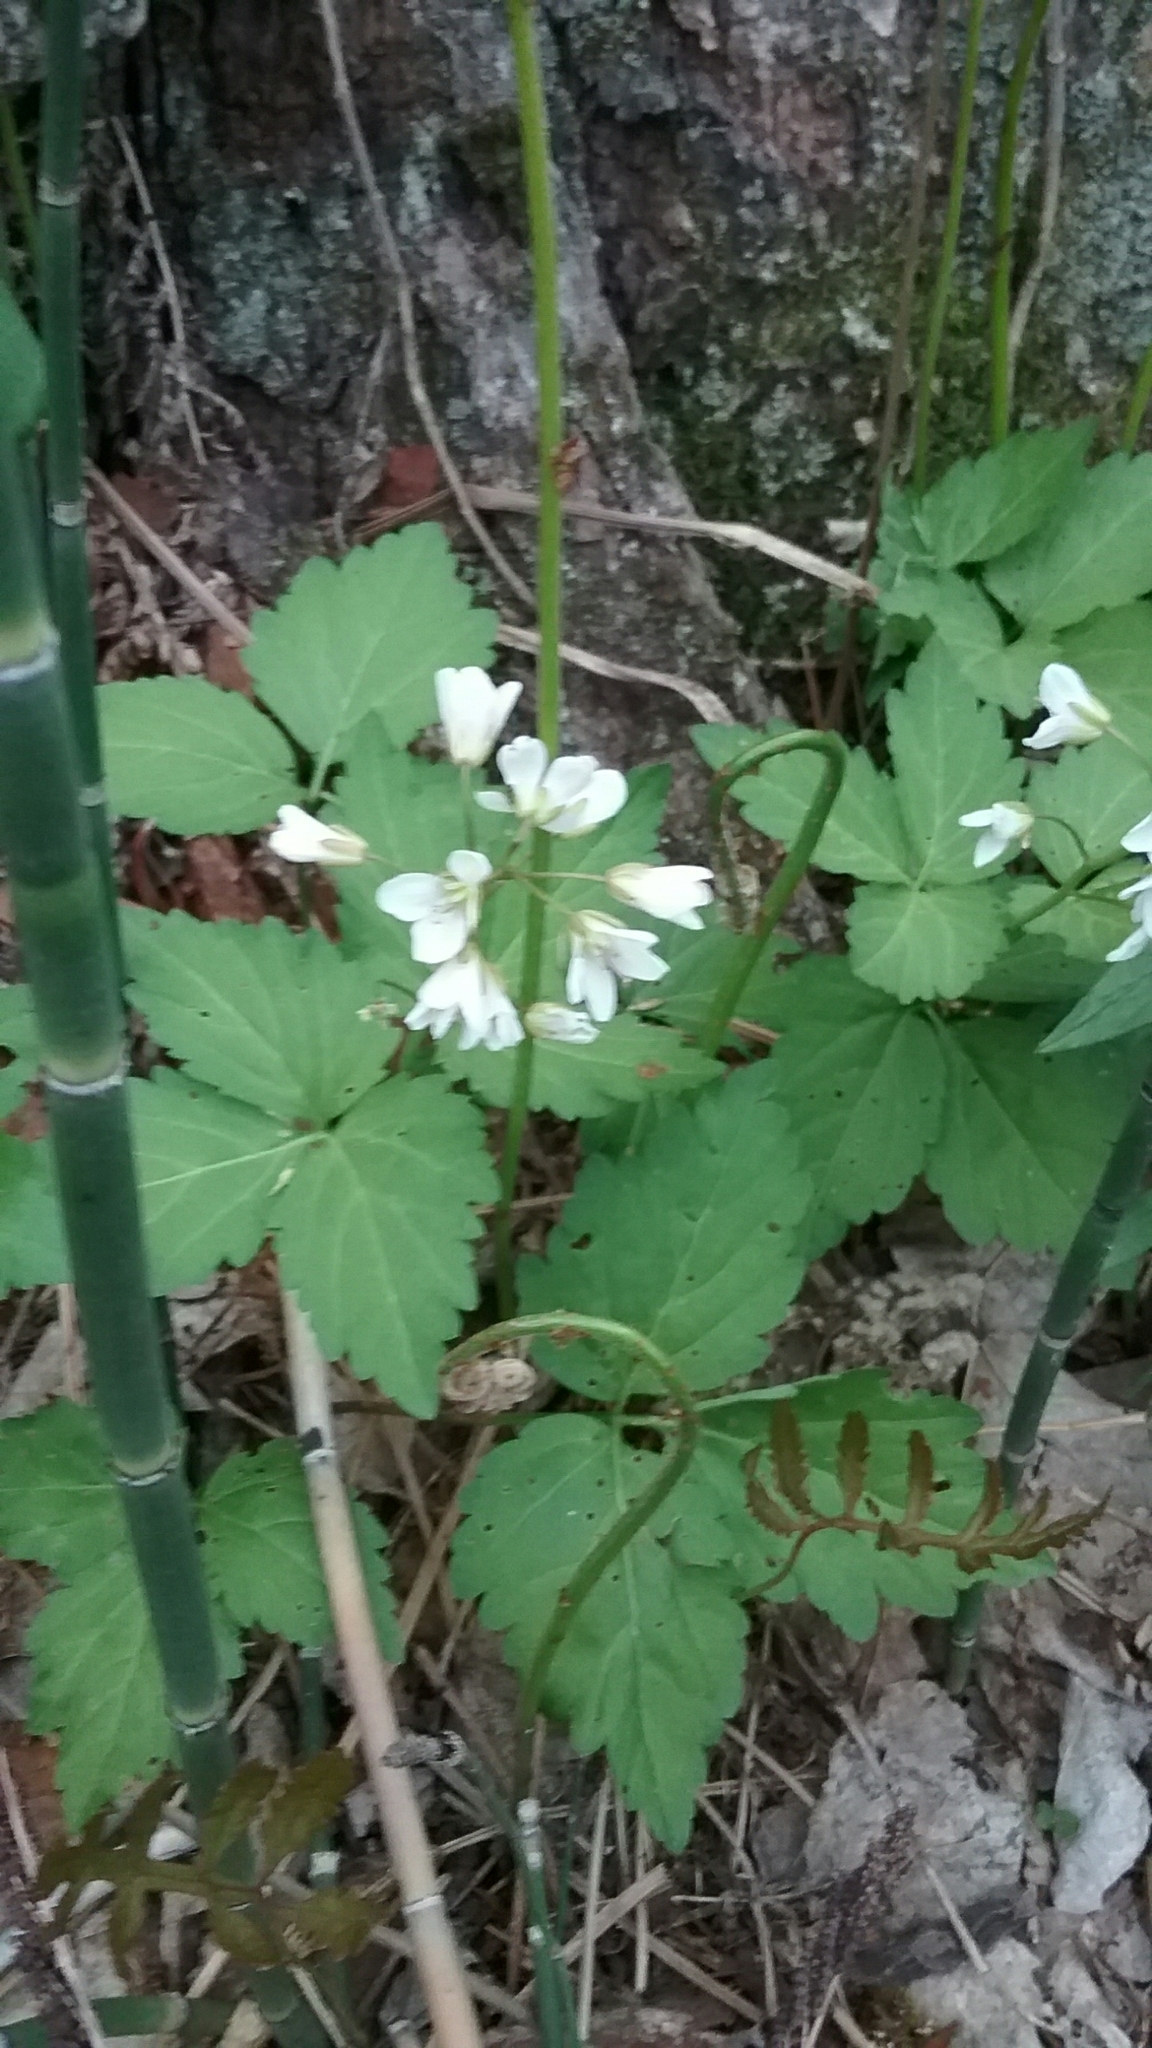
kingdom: Plantae
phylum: Tracheophyta
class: Magnoliopsida
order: Brassicales
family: Brassicaceae
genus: Cardamine
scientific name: Cardamine diphylla
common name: Broad-leaved toothwort
